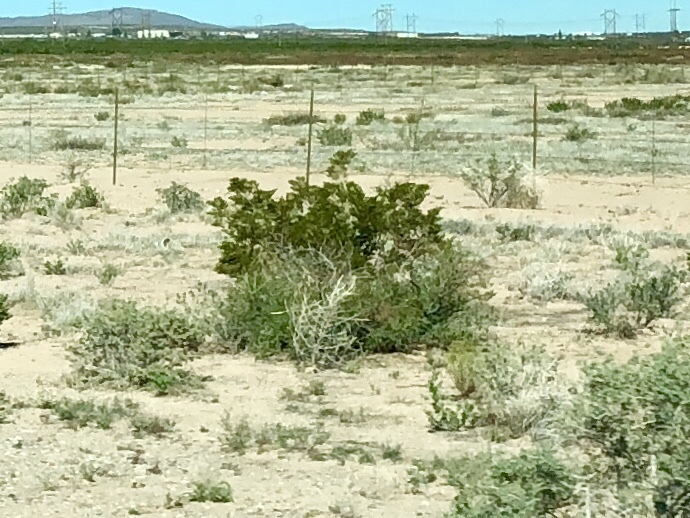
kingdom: Plantae
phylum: Tracheophyta
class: Magnoliopsida
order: Zygophyllales
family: Zygophyllaceae
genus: Larrea
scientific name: Larrea tridentata
